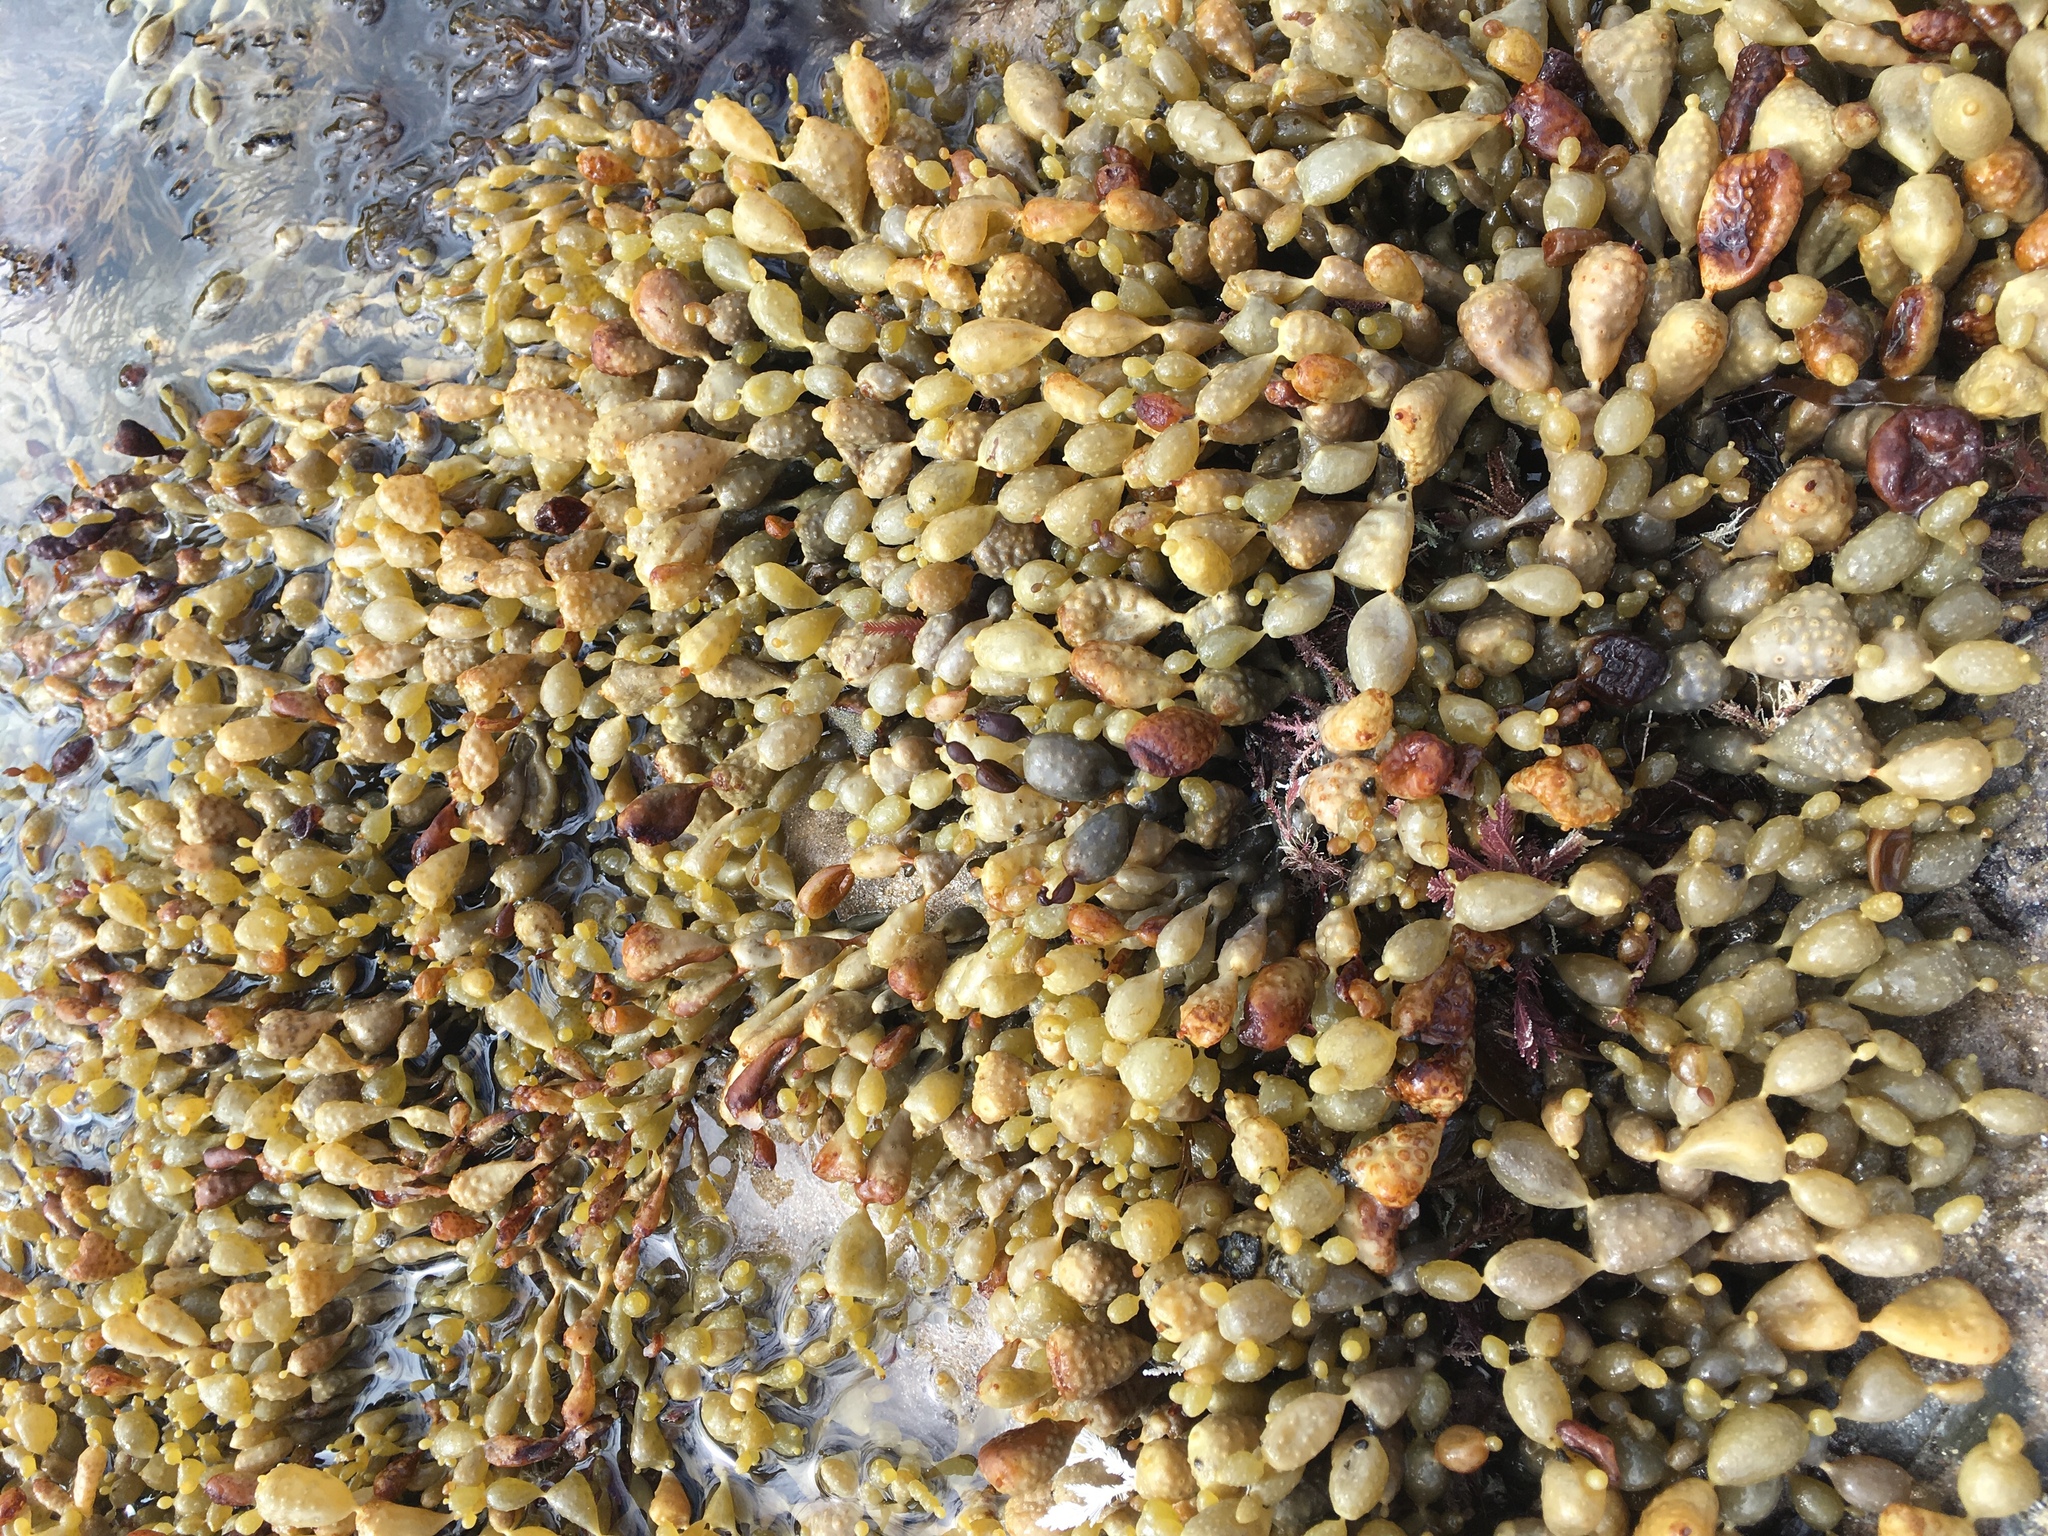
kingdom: Chromista
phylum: Ochrophyta
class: Phaeophyceae
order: Fucales
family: Hormosiraceae
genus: Hormosira
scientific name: Hormosira banksii
